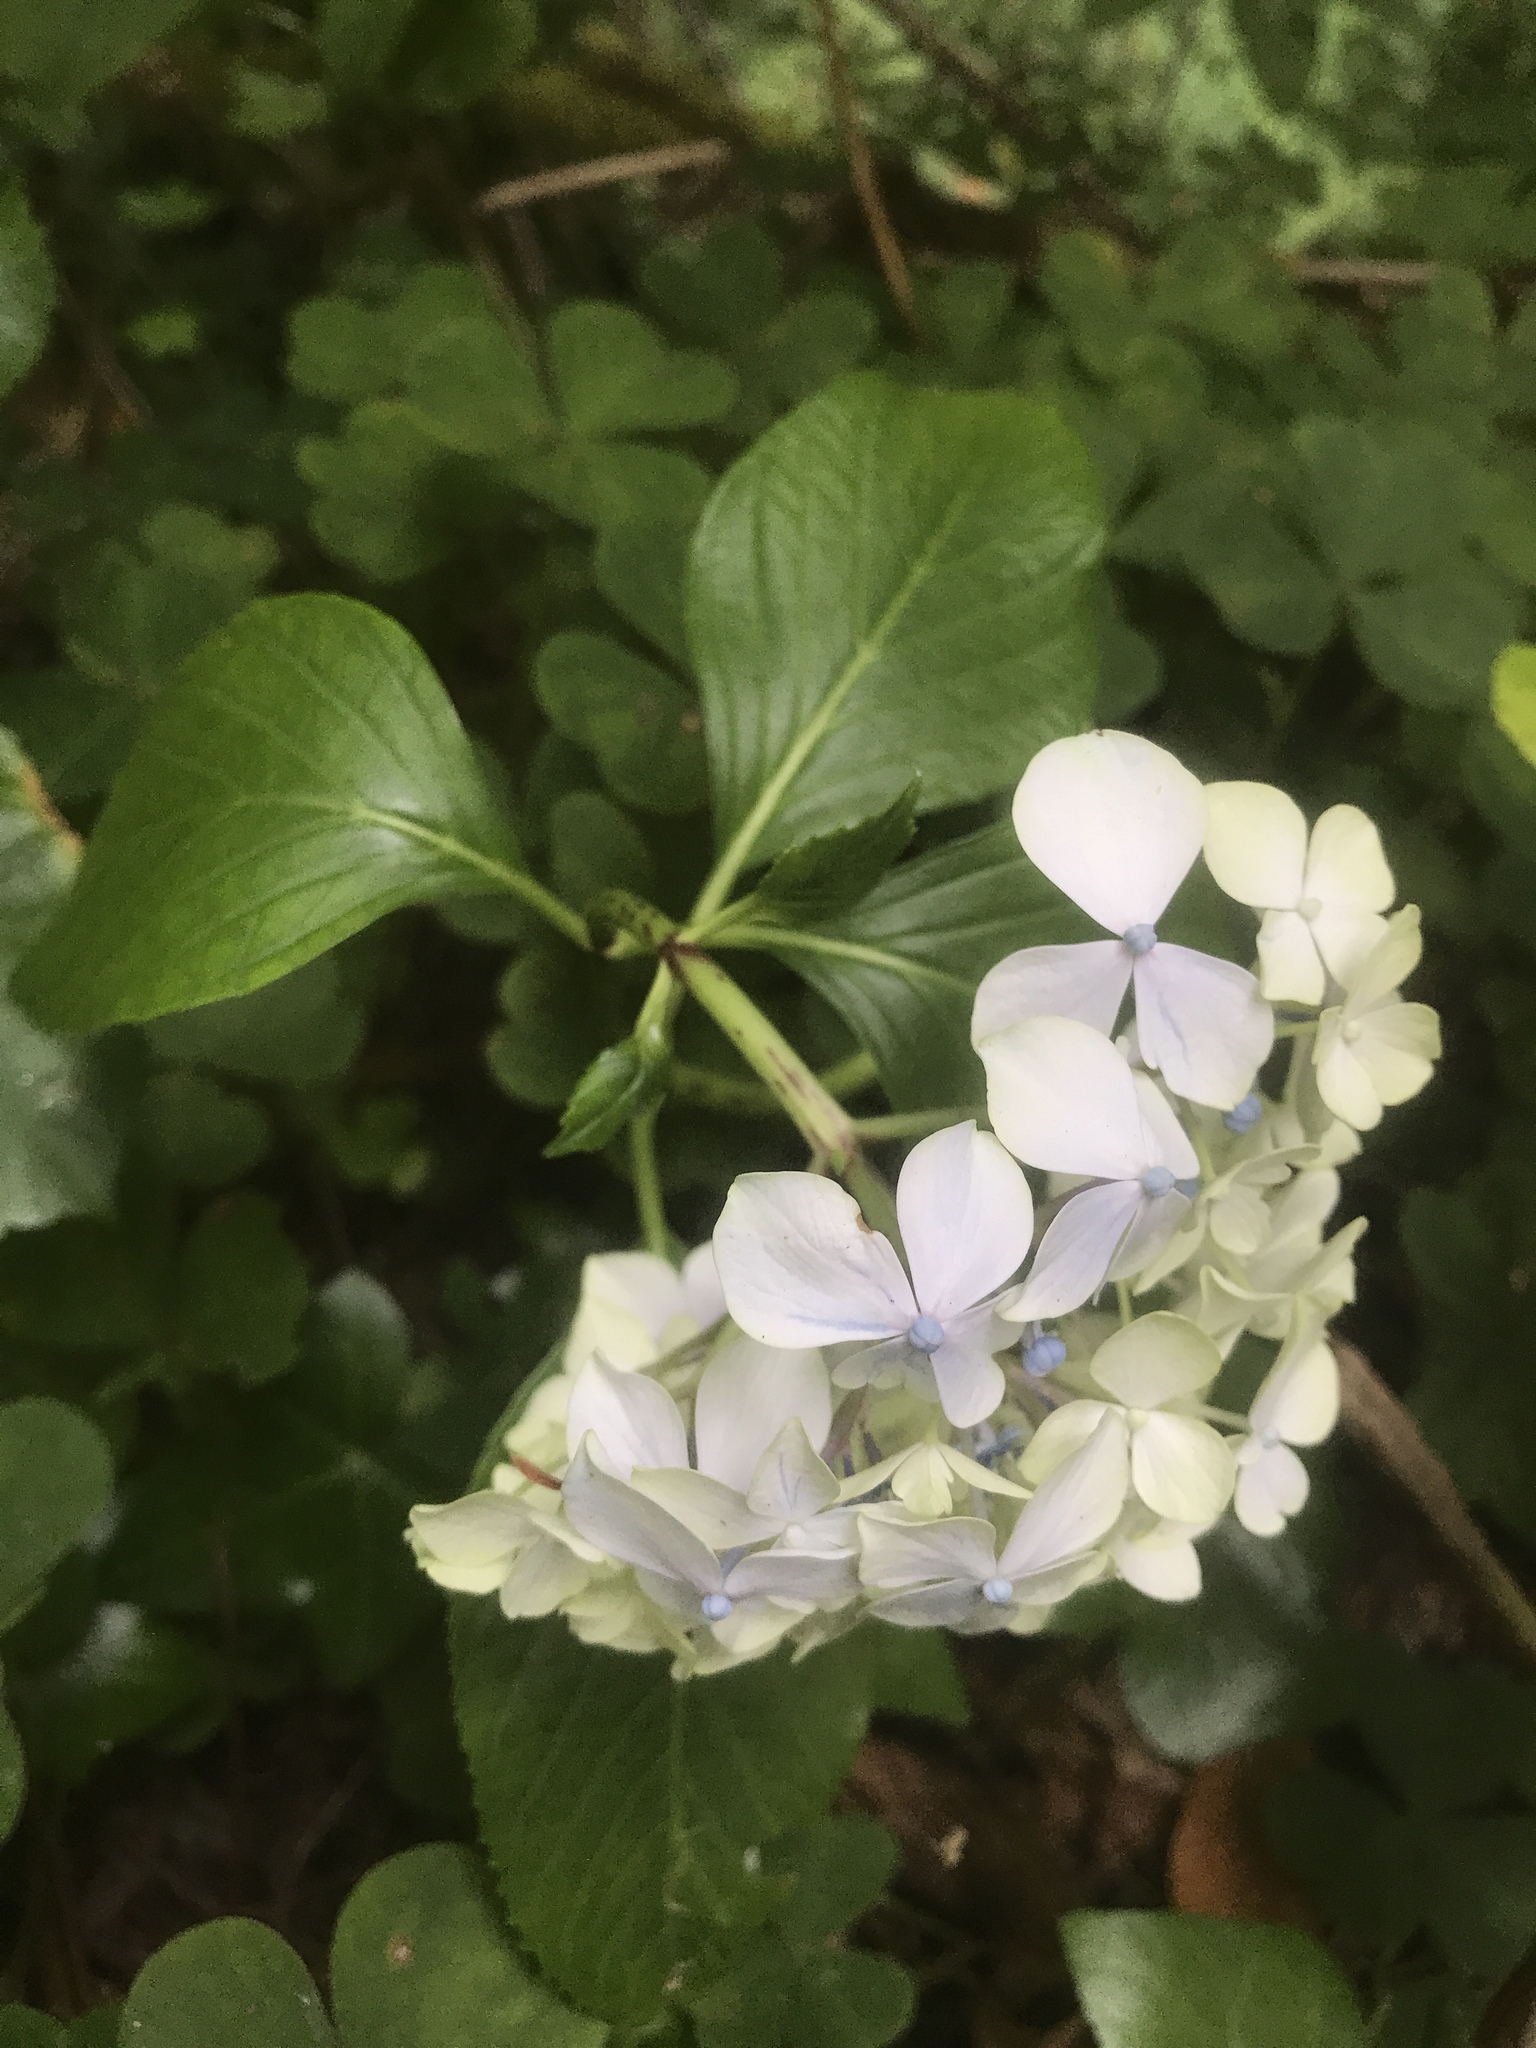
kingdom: Plantae
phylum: Tracheophyta
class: Magnoliopsida
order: Cornales
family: Hydrangeaceae
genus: Hydrangea
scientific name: Hydrangea macrophylla
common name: Hydrangea
